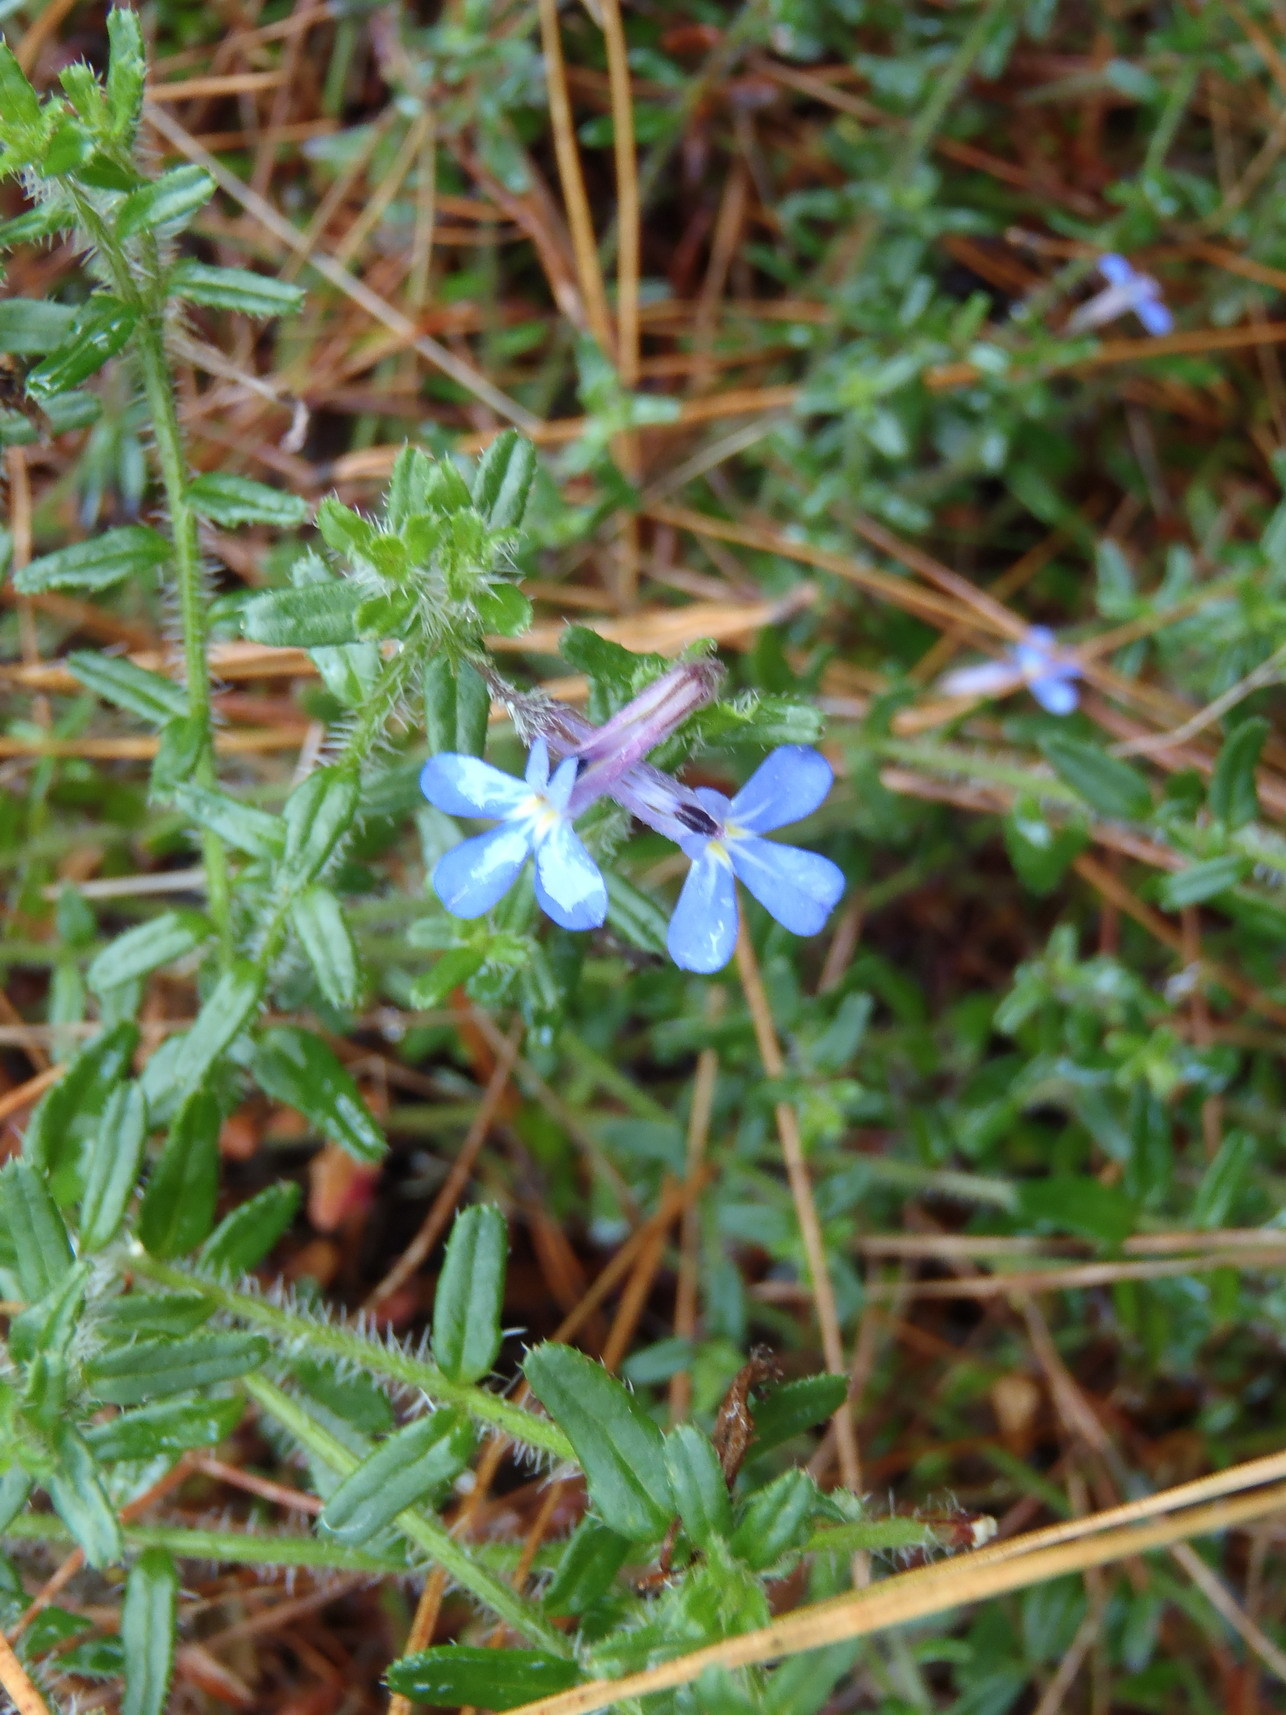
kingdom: Plantae
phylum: Tracheophyta
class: Magnoliopsida
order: Asterales
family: Campanulaceae
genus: Lobelia
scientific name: Lobelia neglecta
